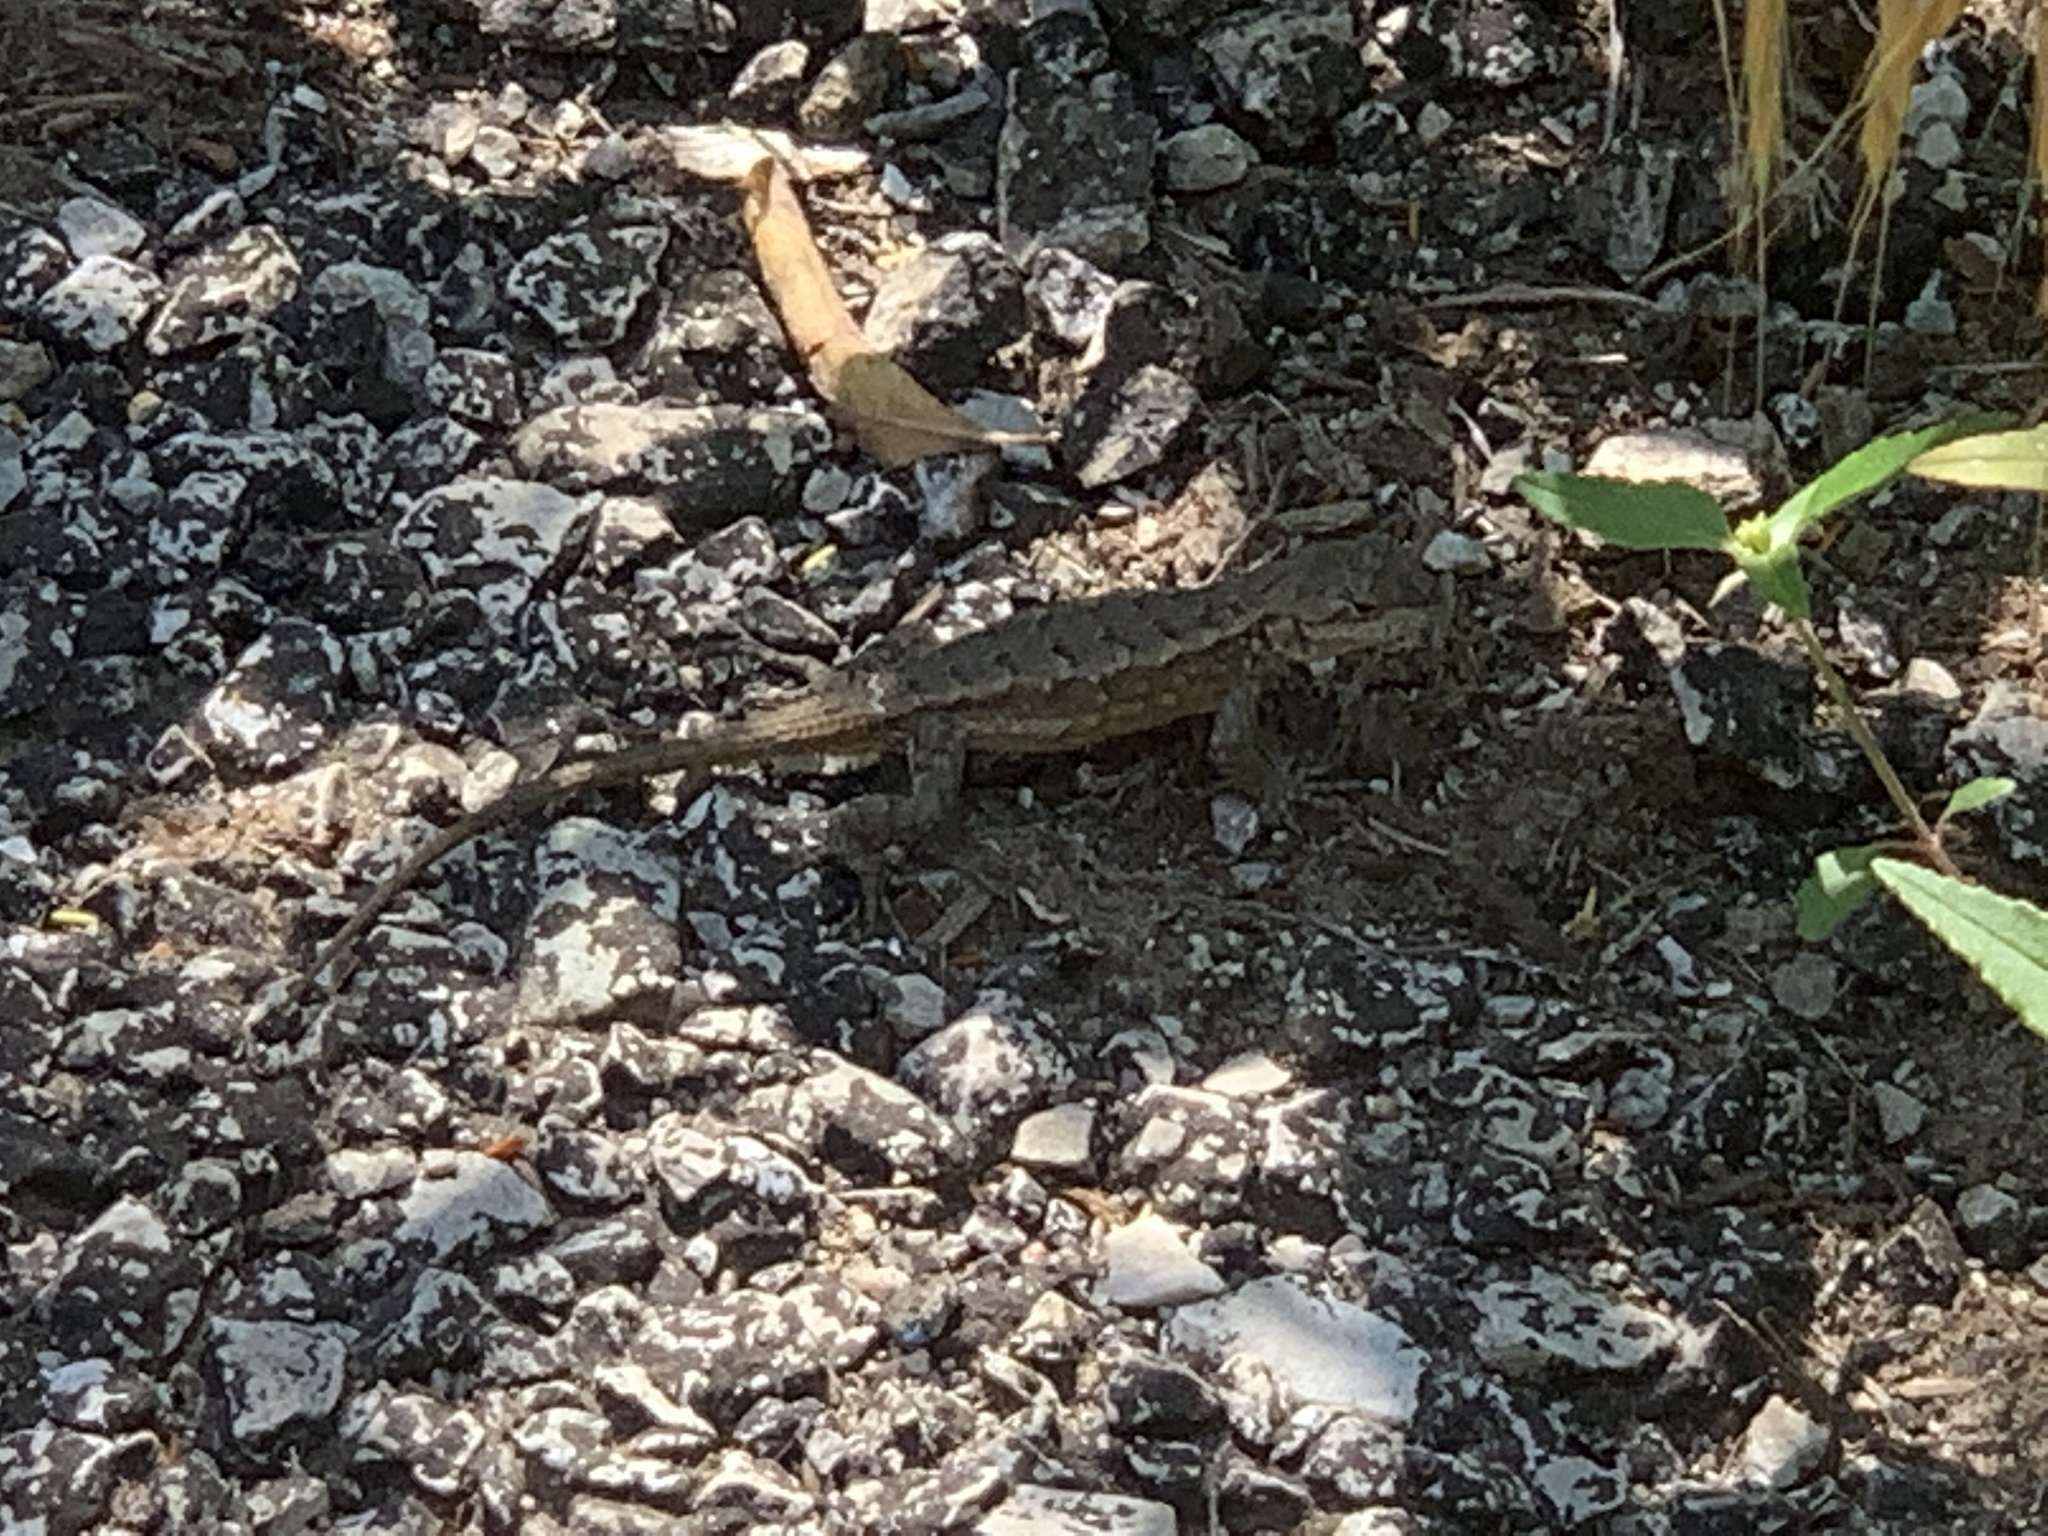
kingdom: Animalia
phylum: Chordata
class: Squamata
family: Phrynosomatidae
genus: Sceloporus
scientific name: Sceloporus consobrinus
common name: Southern prairie lizard
